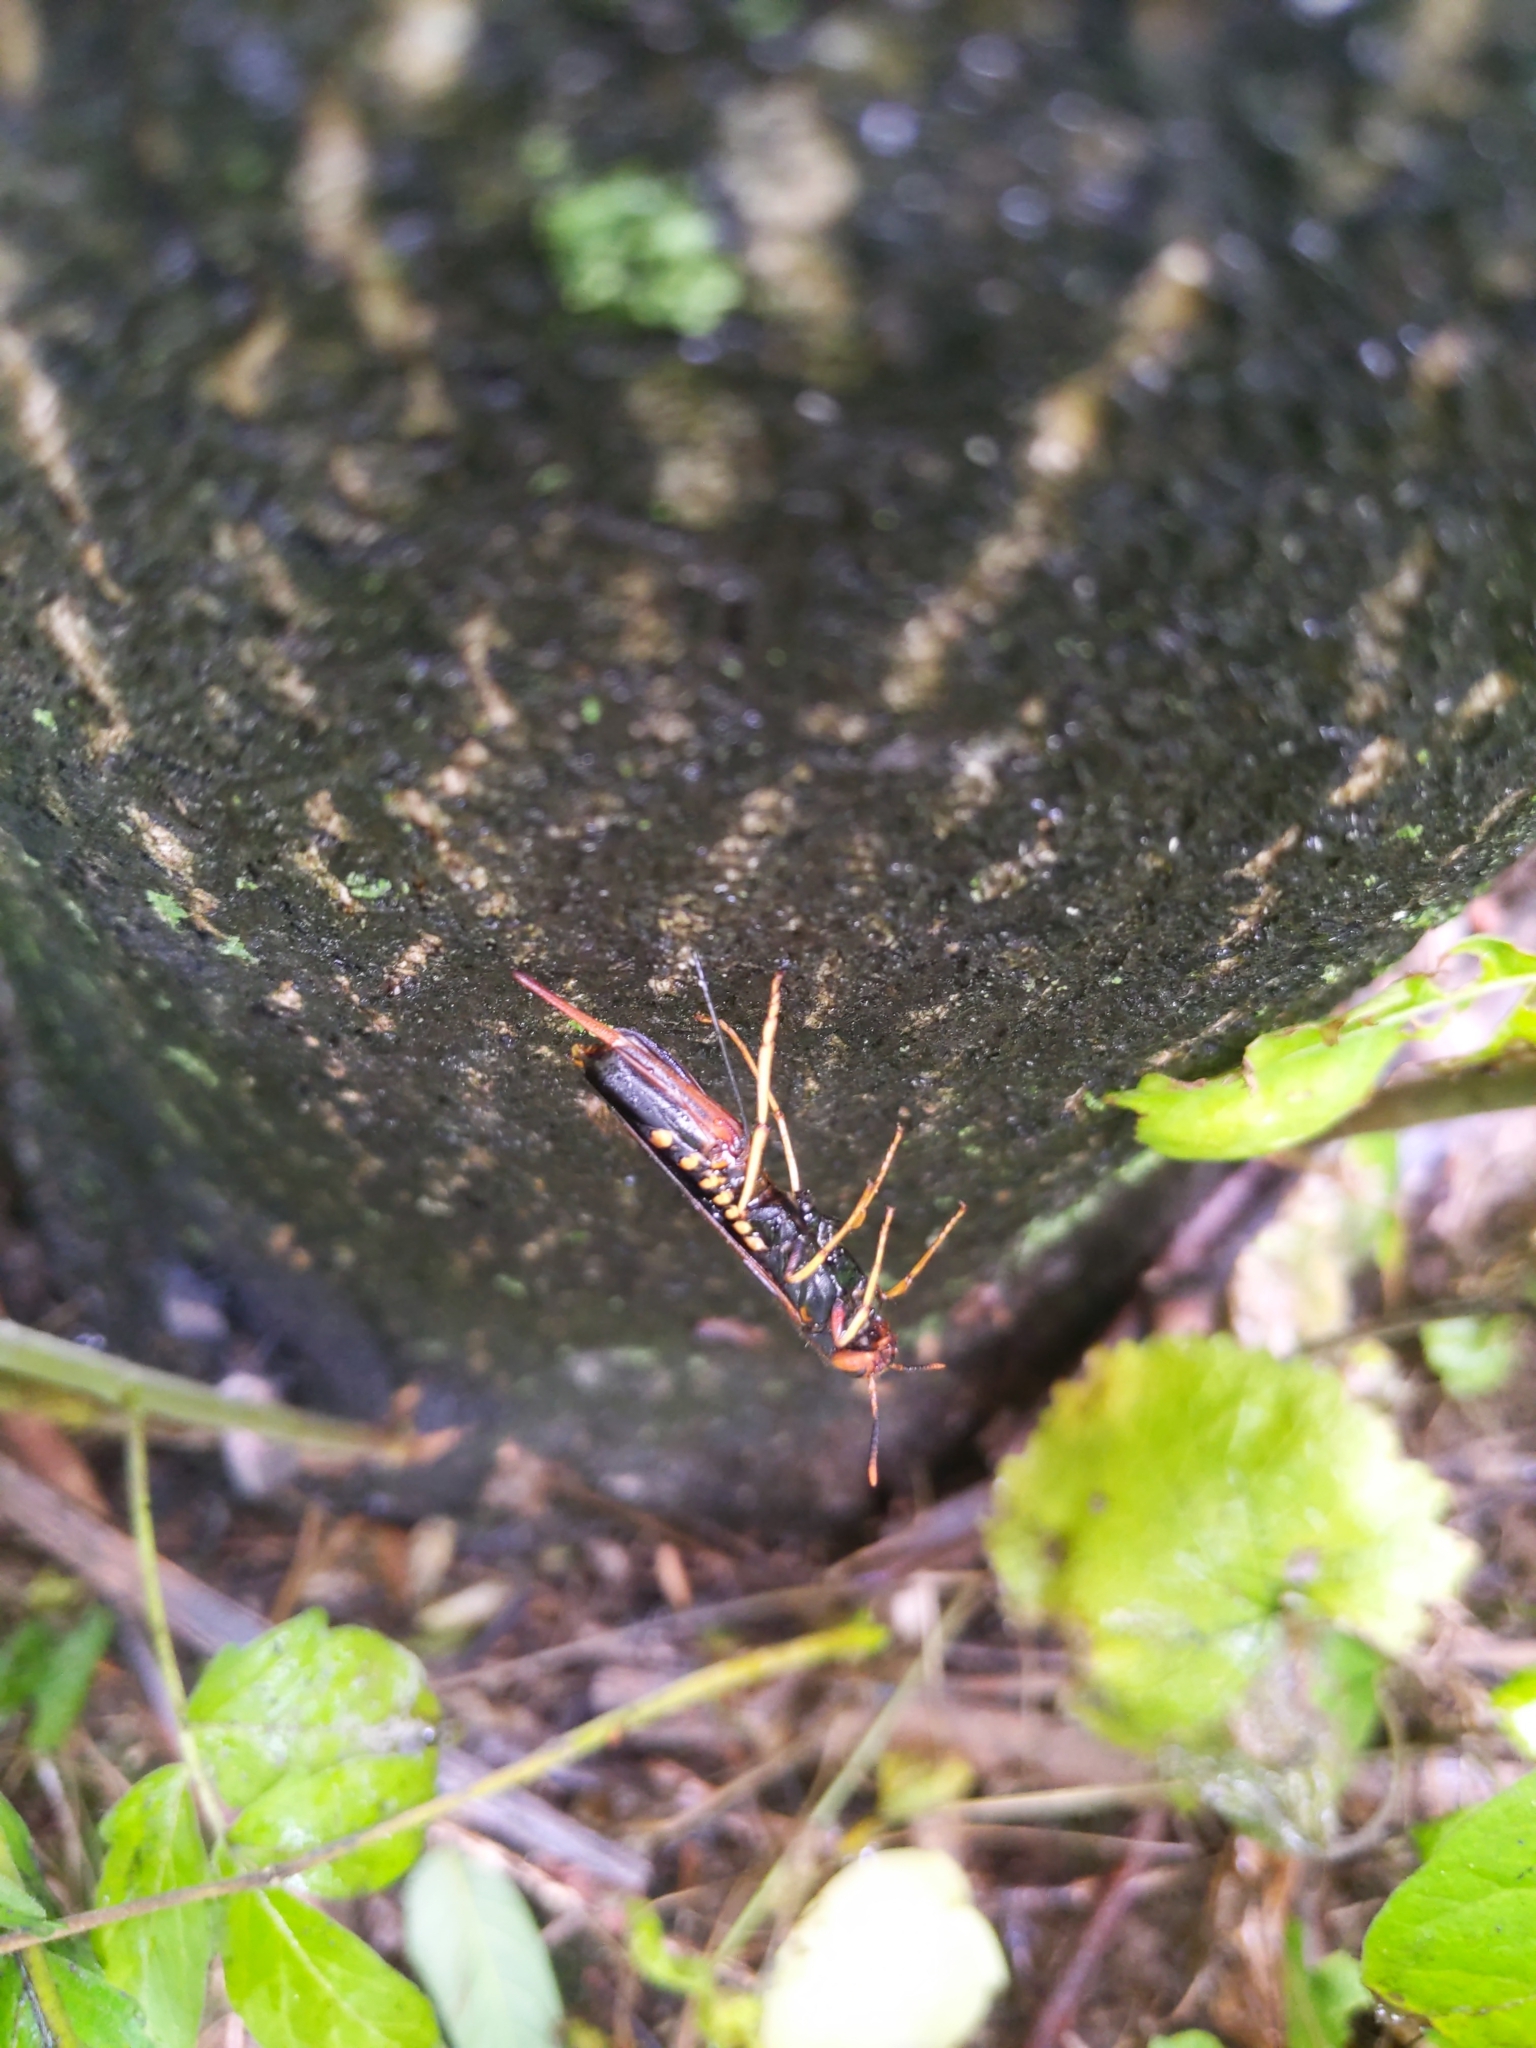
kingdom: Animalia
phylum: Arthropoda
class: Insecta
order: Hymenoptera
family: Siricidae
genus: Tremex
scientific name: Tremex columba
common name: Wasp
